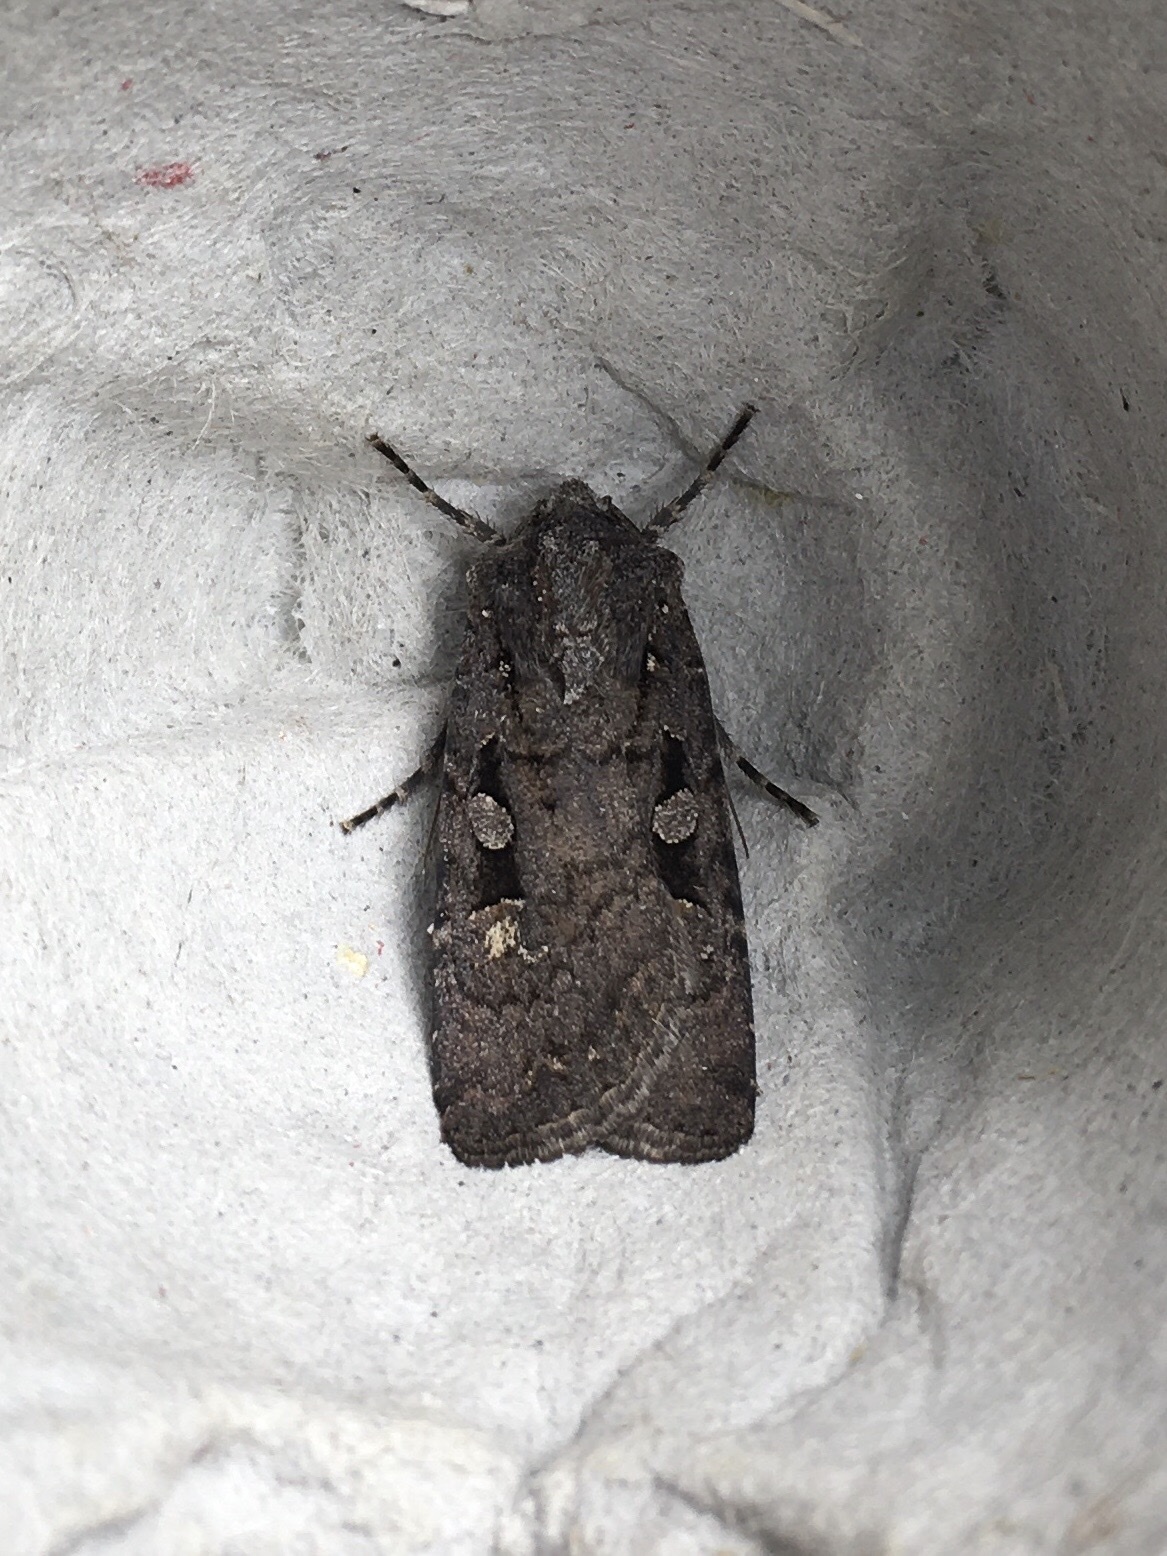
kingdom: Animalia
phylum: Arthropoda
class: Insecta
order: Lepidoptera
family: Noctuidae
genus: Euxoa
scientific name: Euxoa tessellata
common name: Striped cutworm
